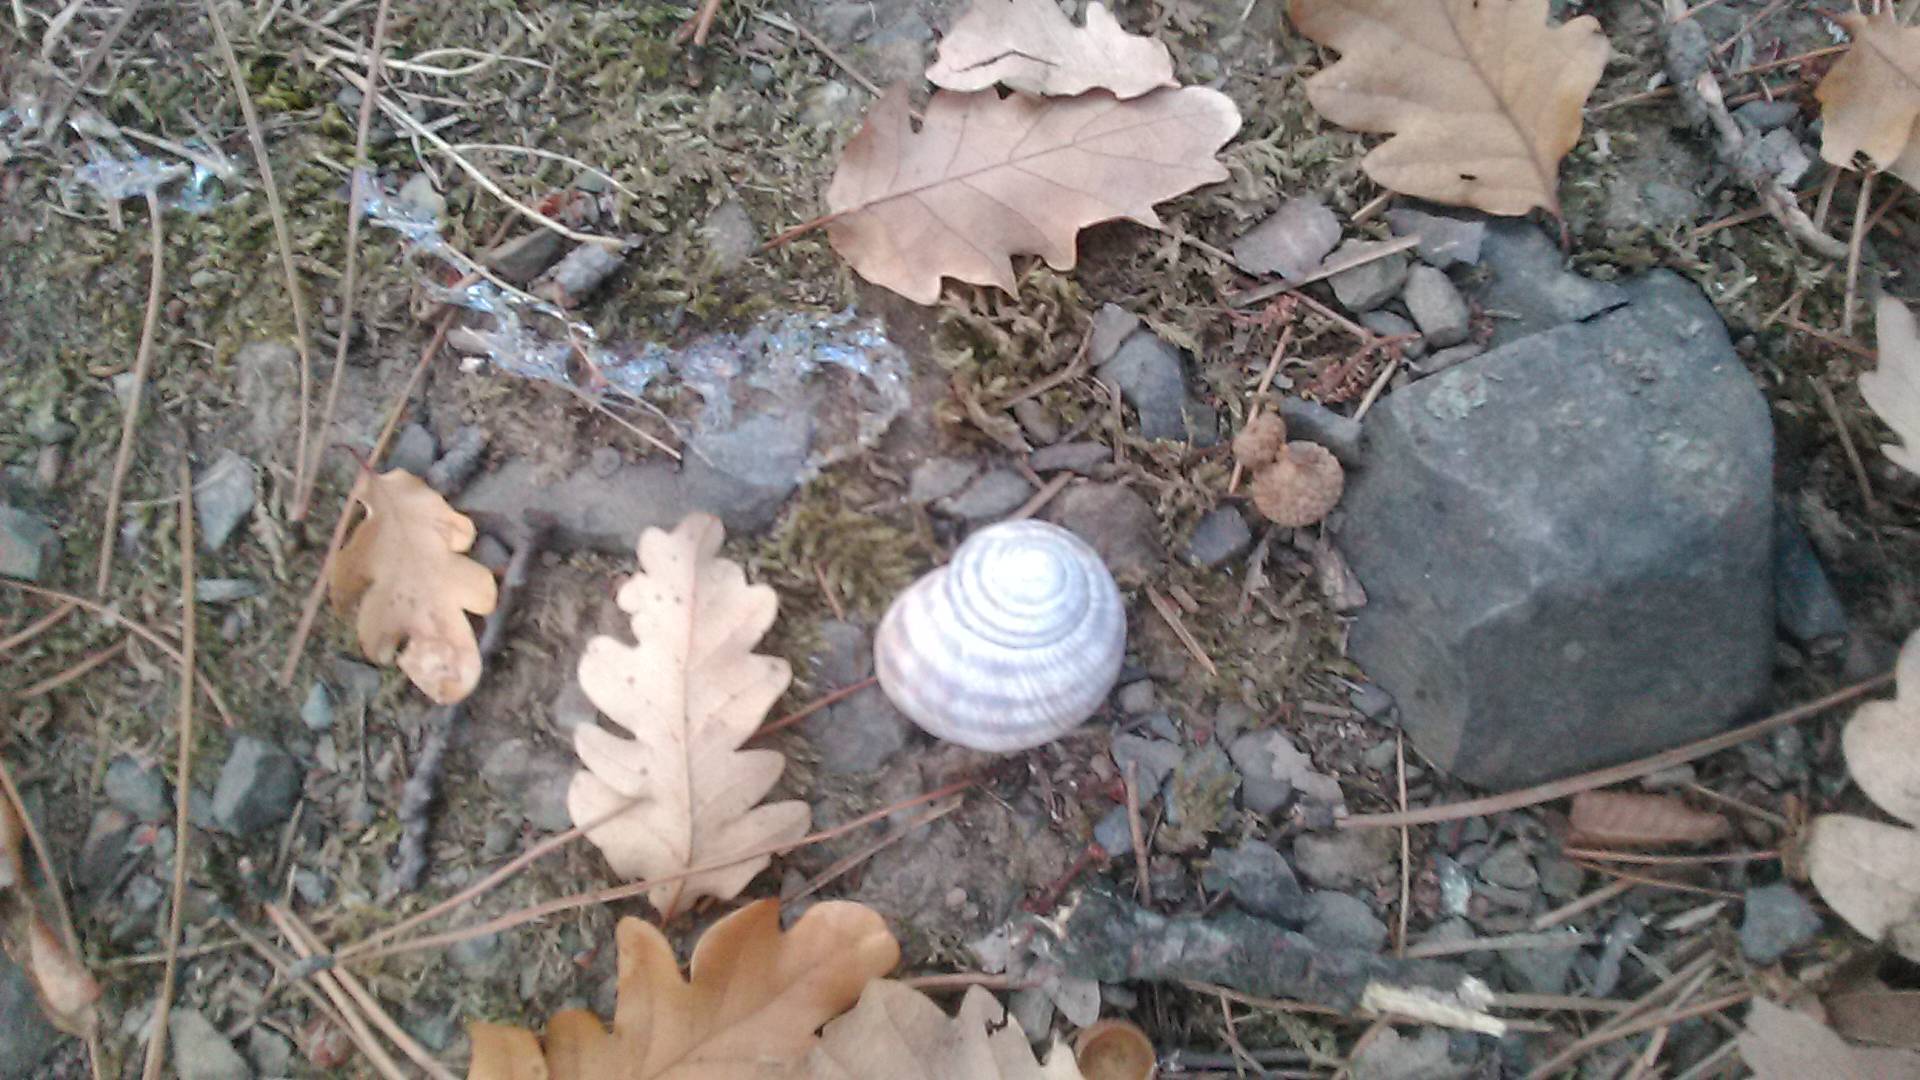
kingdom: Animalia
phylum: Mollusca
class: Gastropoda
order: Stylommatophora
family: Helicidae
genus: Helix
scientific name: Helix albescens
